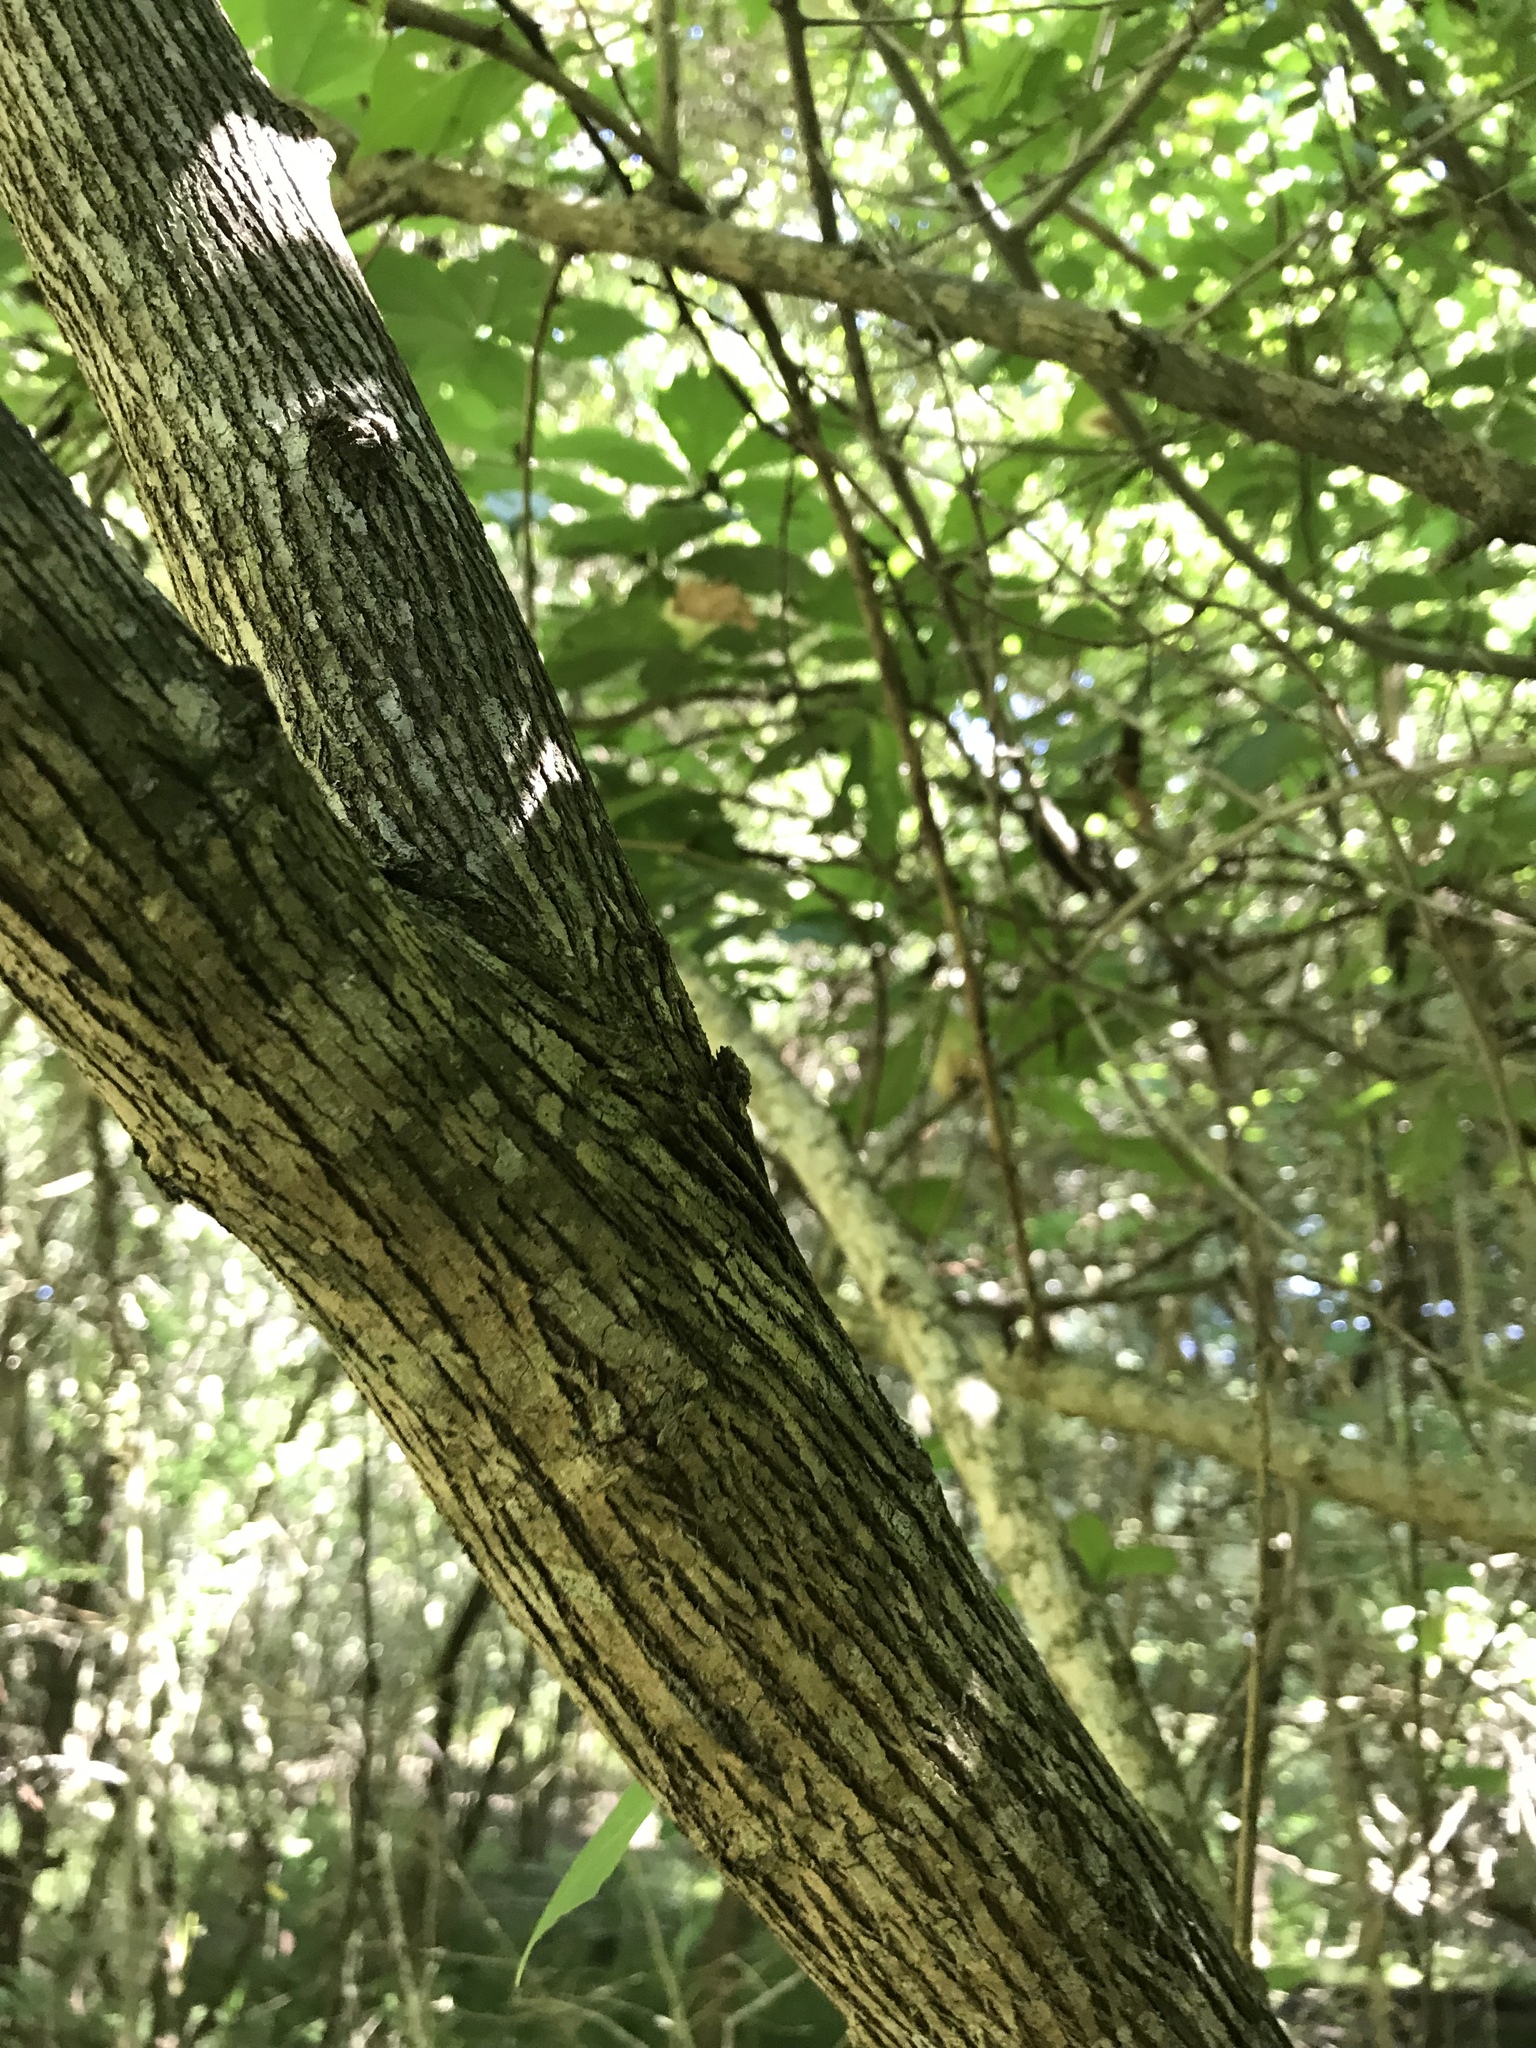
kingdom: Plantae
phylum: Tracheophyta
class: Magnoliopsida
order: Rosales
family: Moraceae
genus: Maclura
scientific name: Maclura pomifera
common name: Osage-orange
